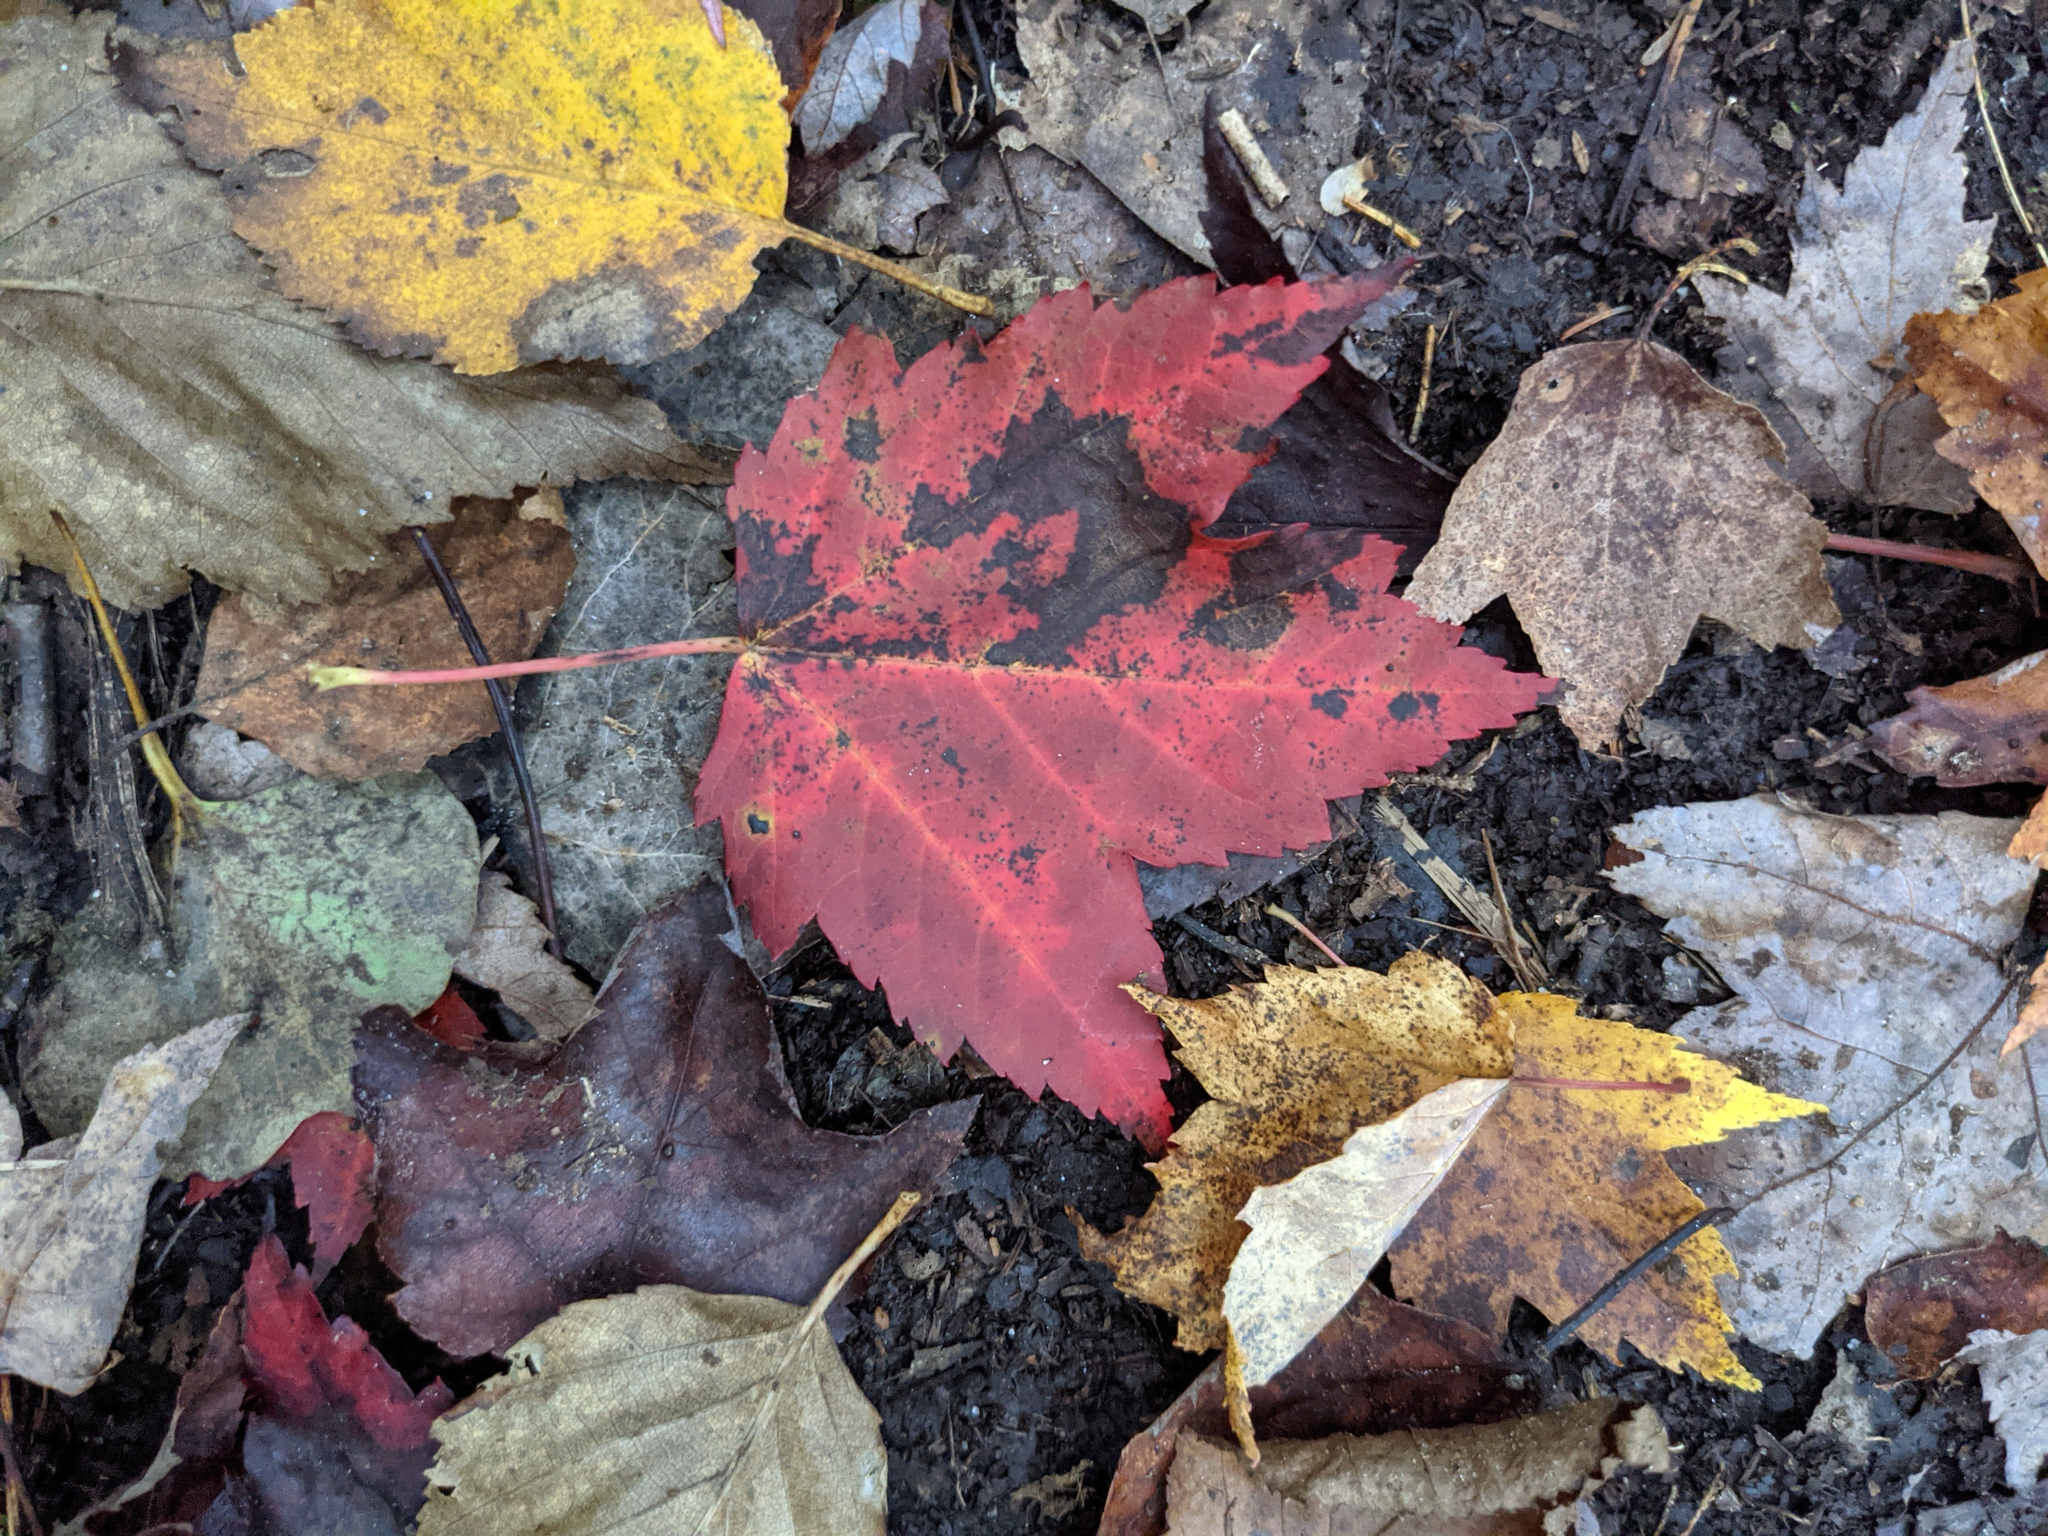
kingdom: Plantae
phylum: Tracheophyta
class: Magnoliopsida
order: Sapindales
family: Sapindaceae
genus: Acer
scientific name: Acer rubrum
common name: Red maple
